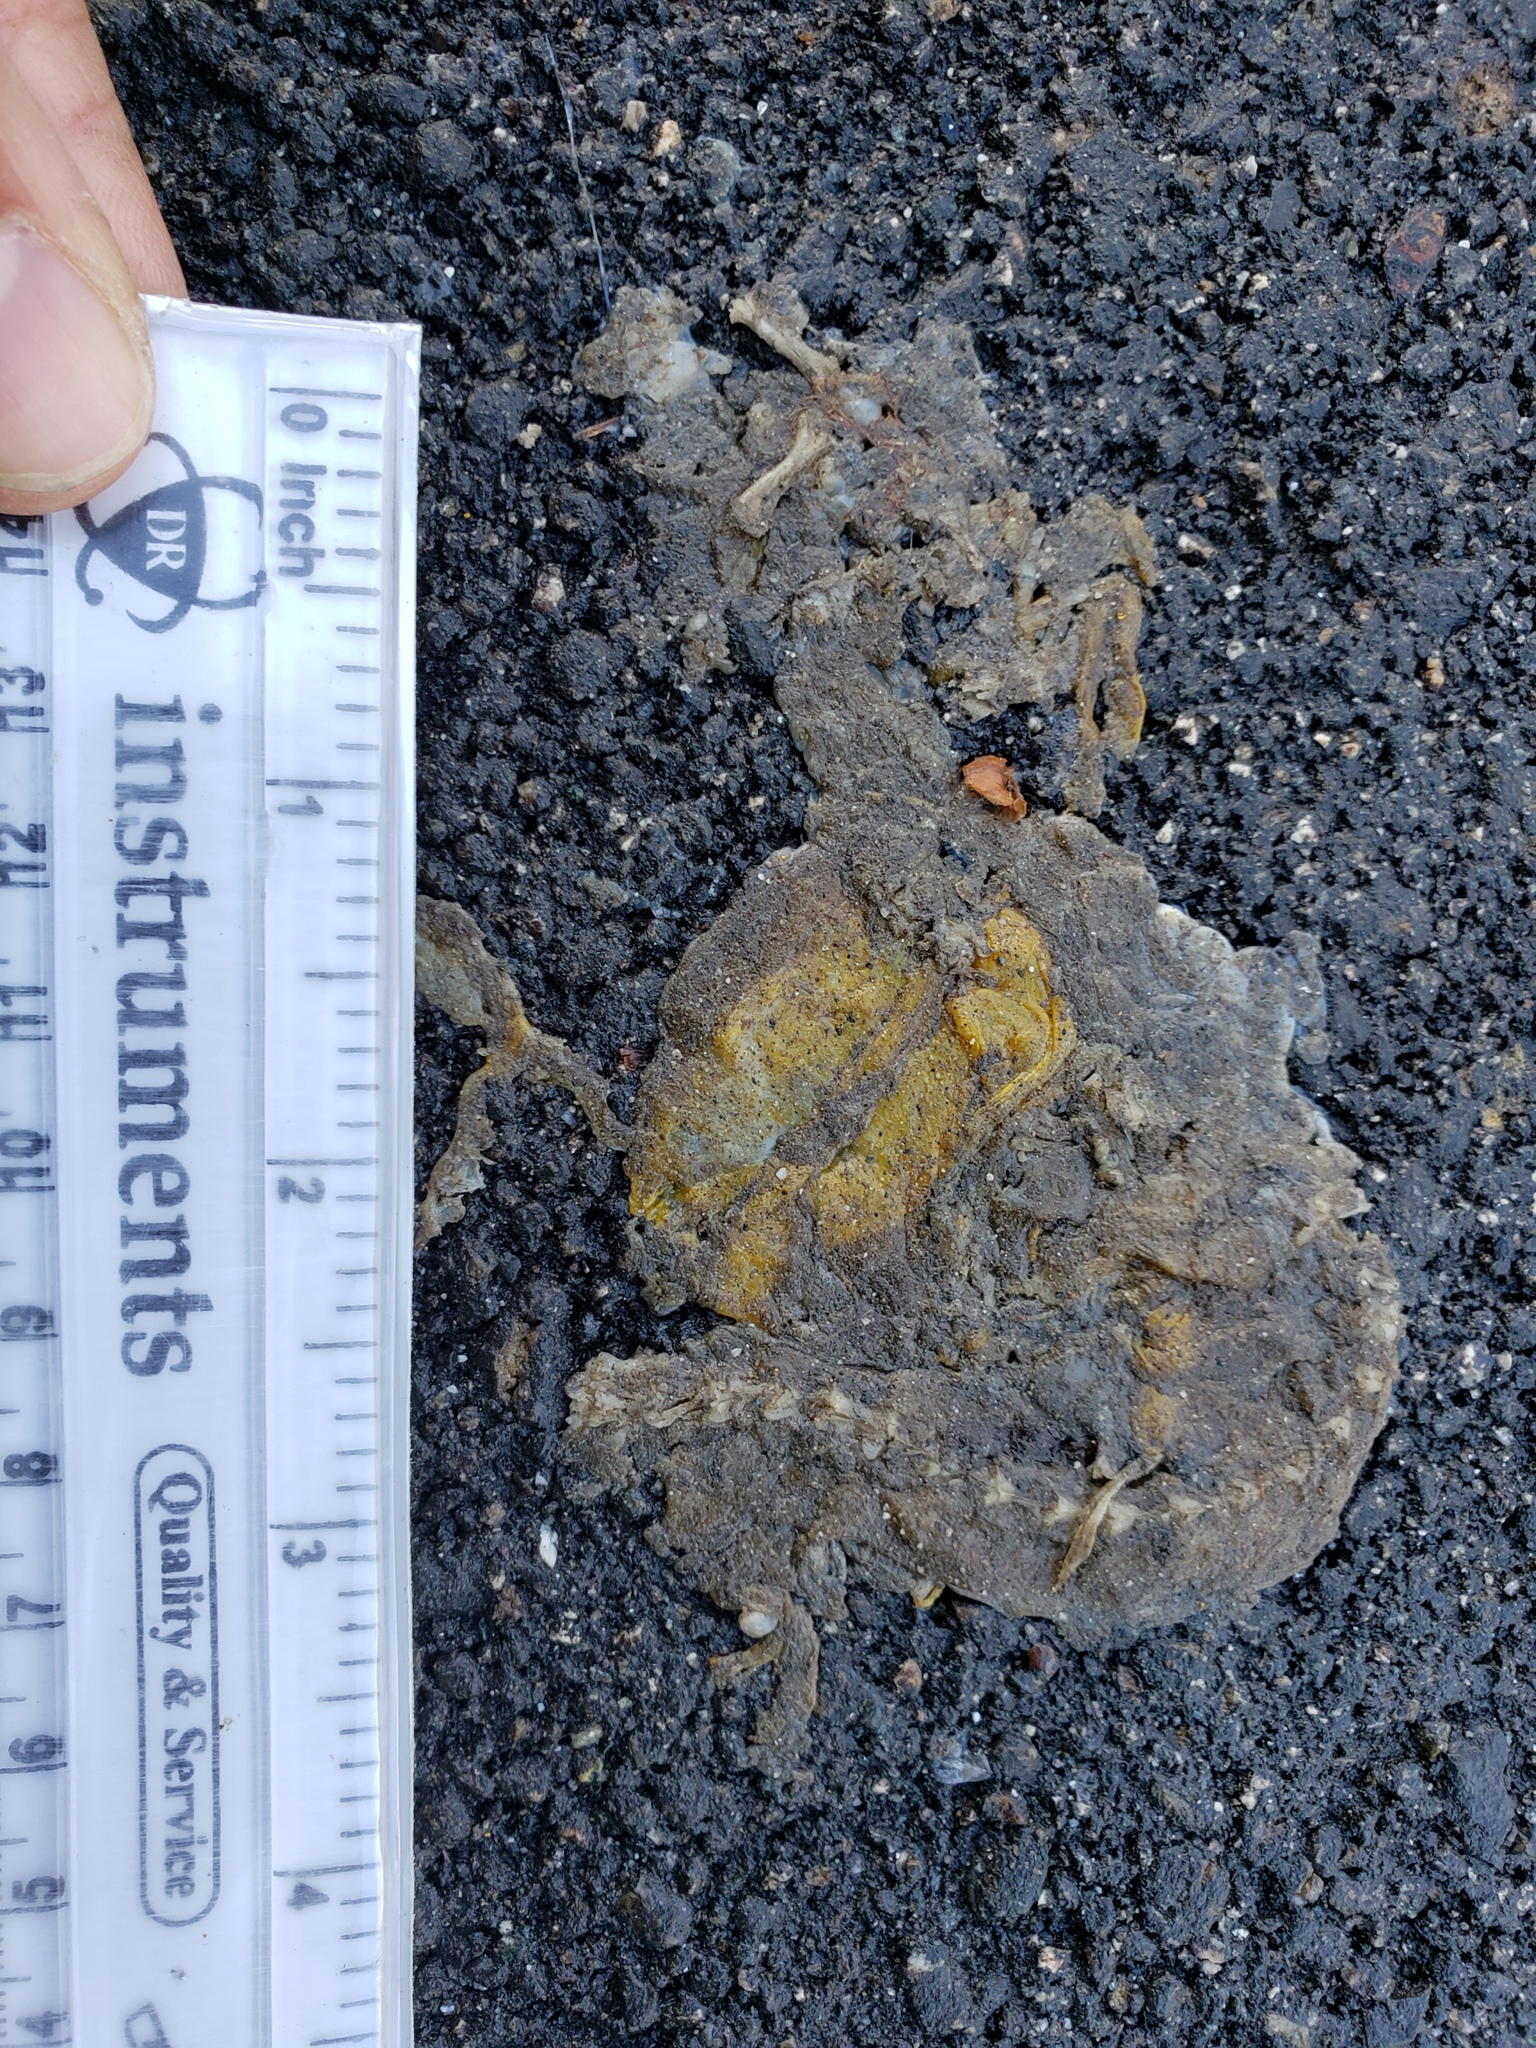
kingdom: Animalia
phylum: Chordata
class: Amphibia
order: Caudata
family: Salamandridae
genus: Taricha
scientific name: Taricha
